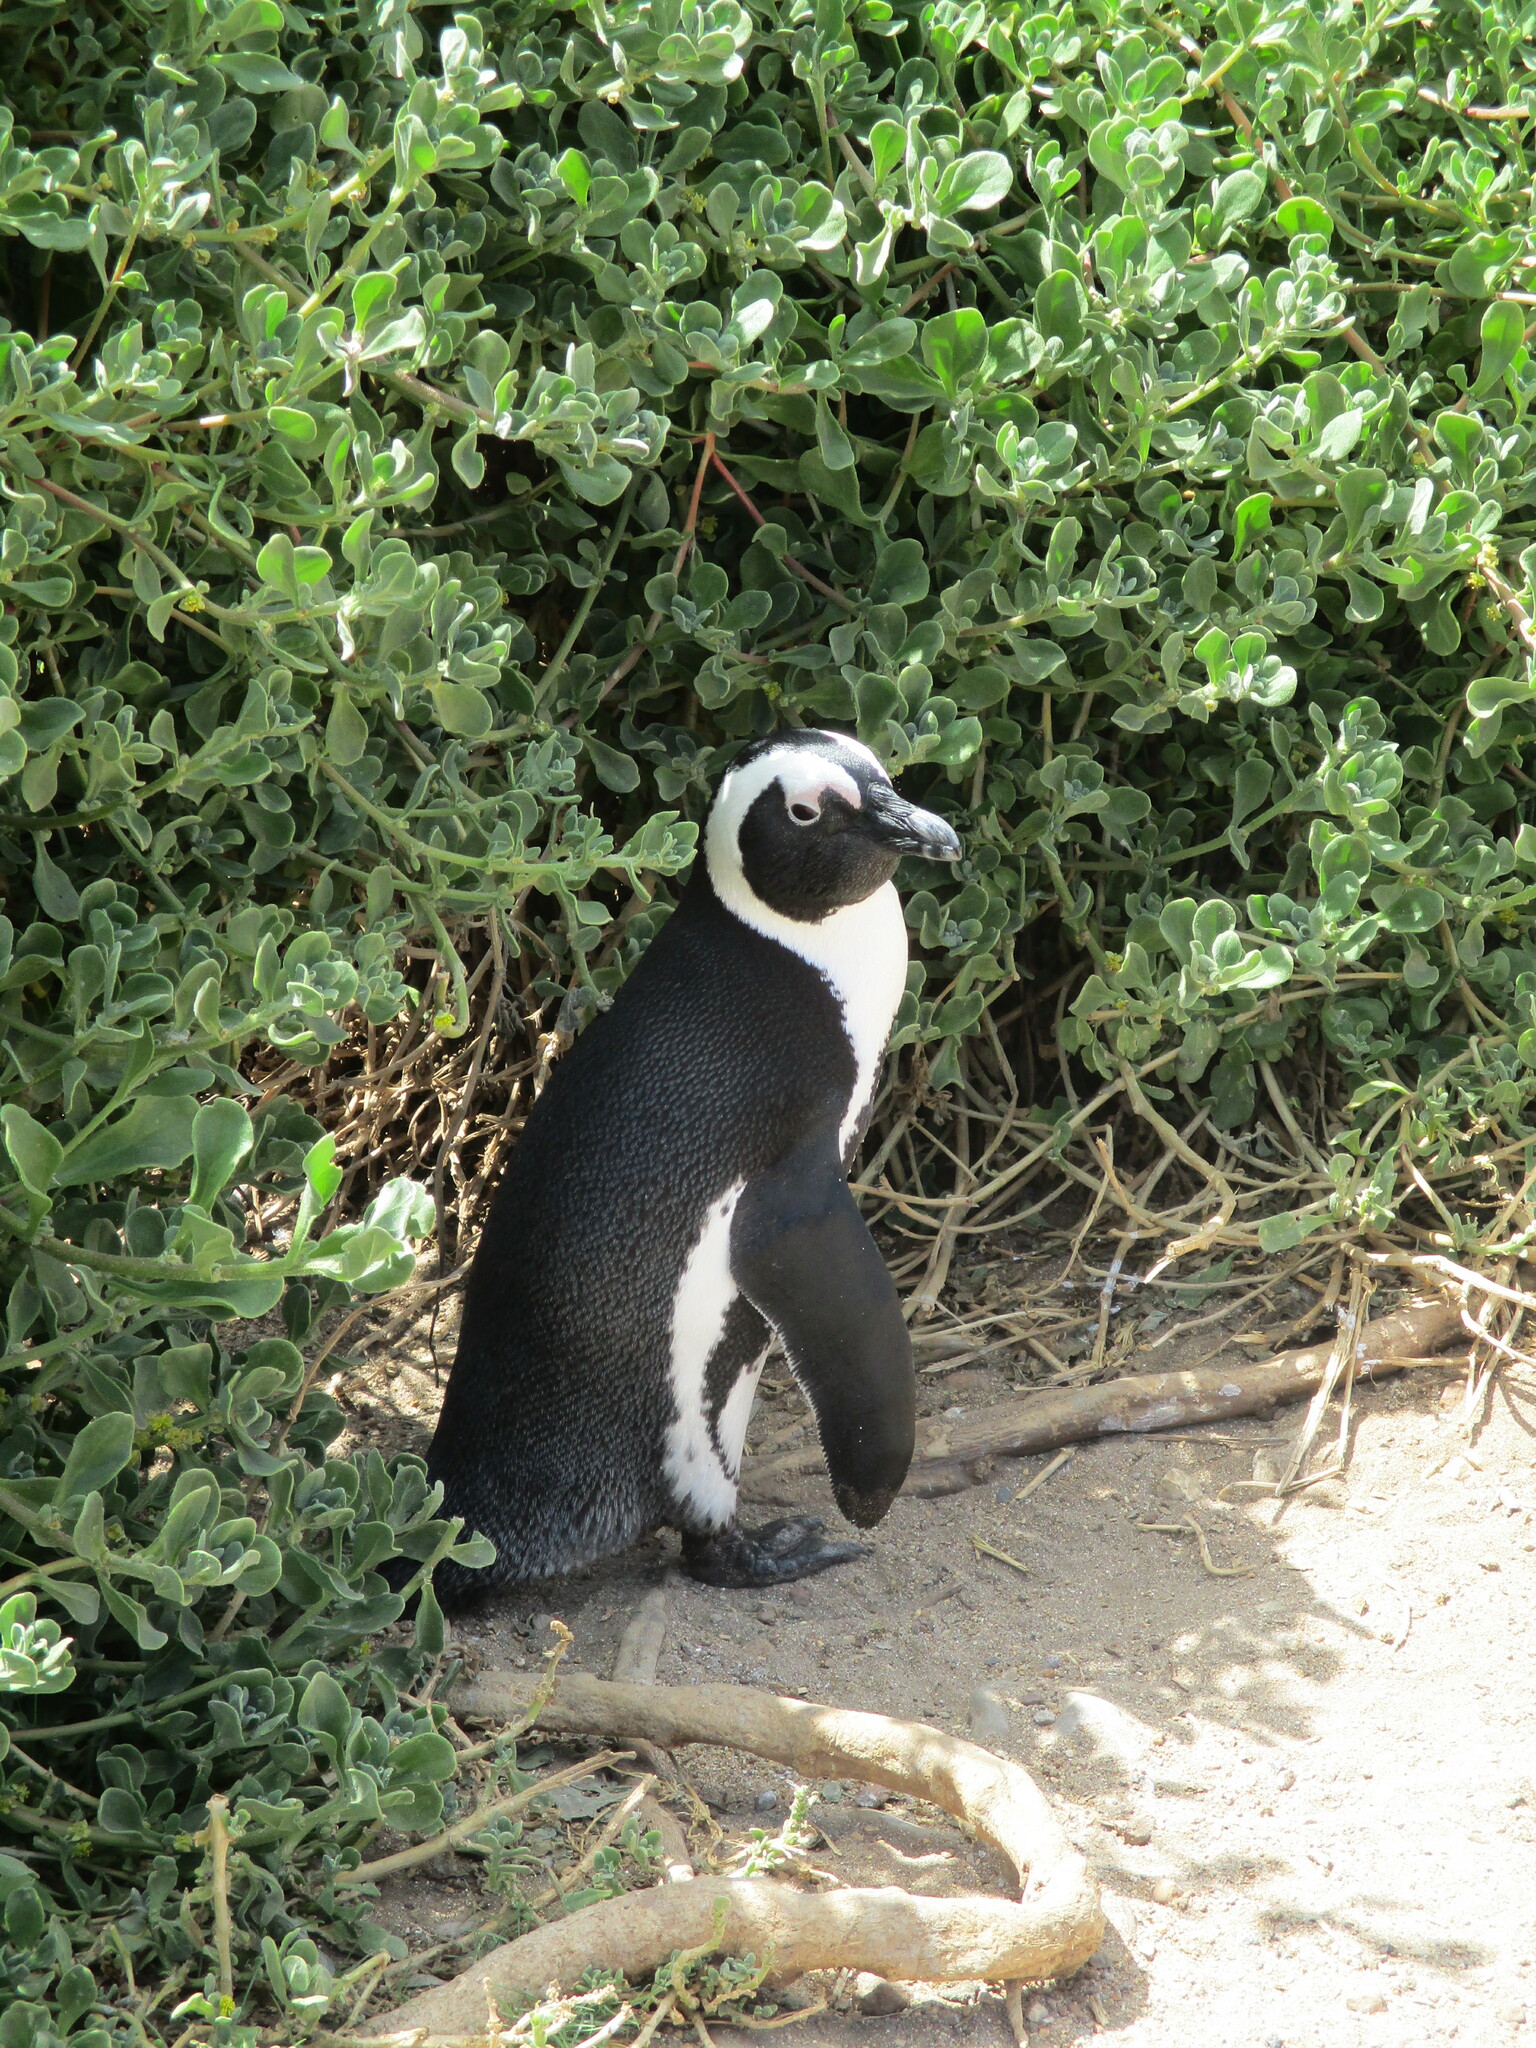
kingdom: Animalia
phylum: Chordata
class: Aves
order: Sphenisciformes
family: Spheniscidae
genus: Spheniscus
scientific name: Spheniscus demersus
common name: African penguin
